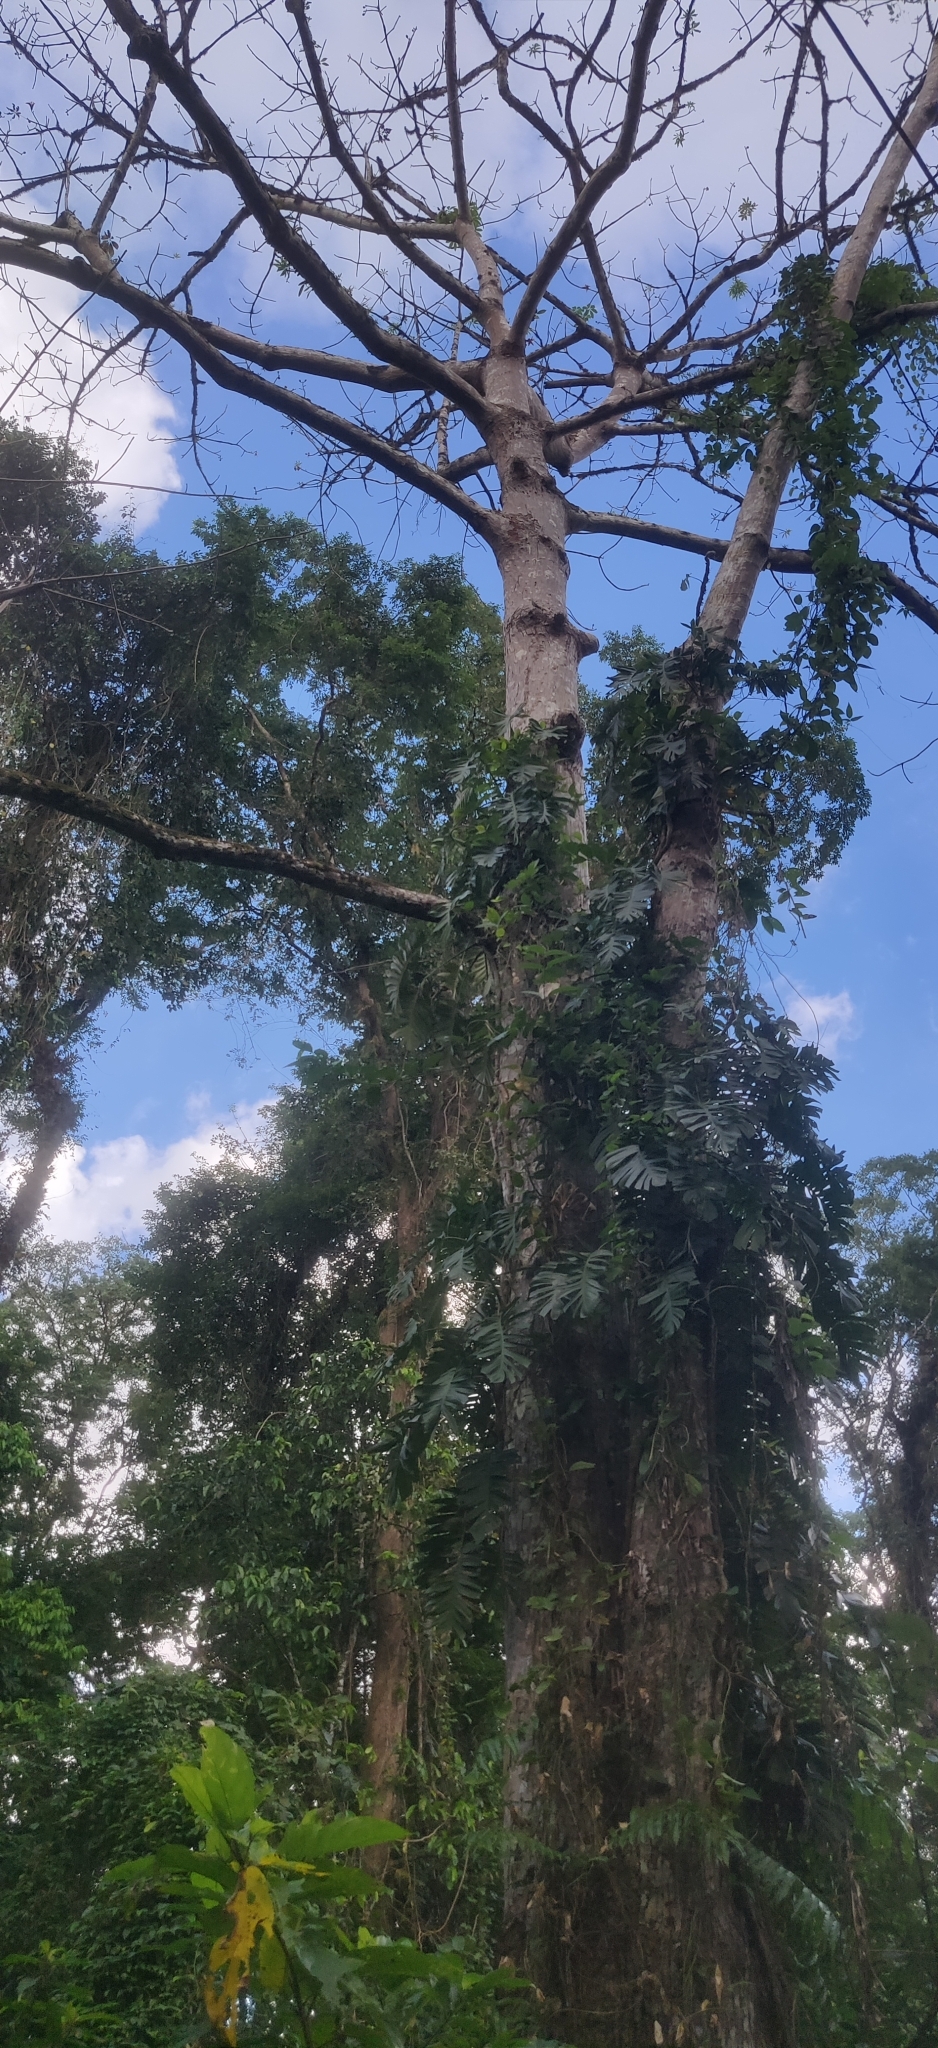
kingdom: Plantae
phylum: Tracheophyta
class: Magnoliopsida
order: Malvales
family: Malvaceae
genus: Bombax
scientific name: Bombax insigne
